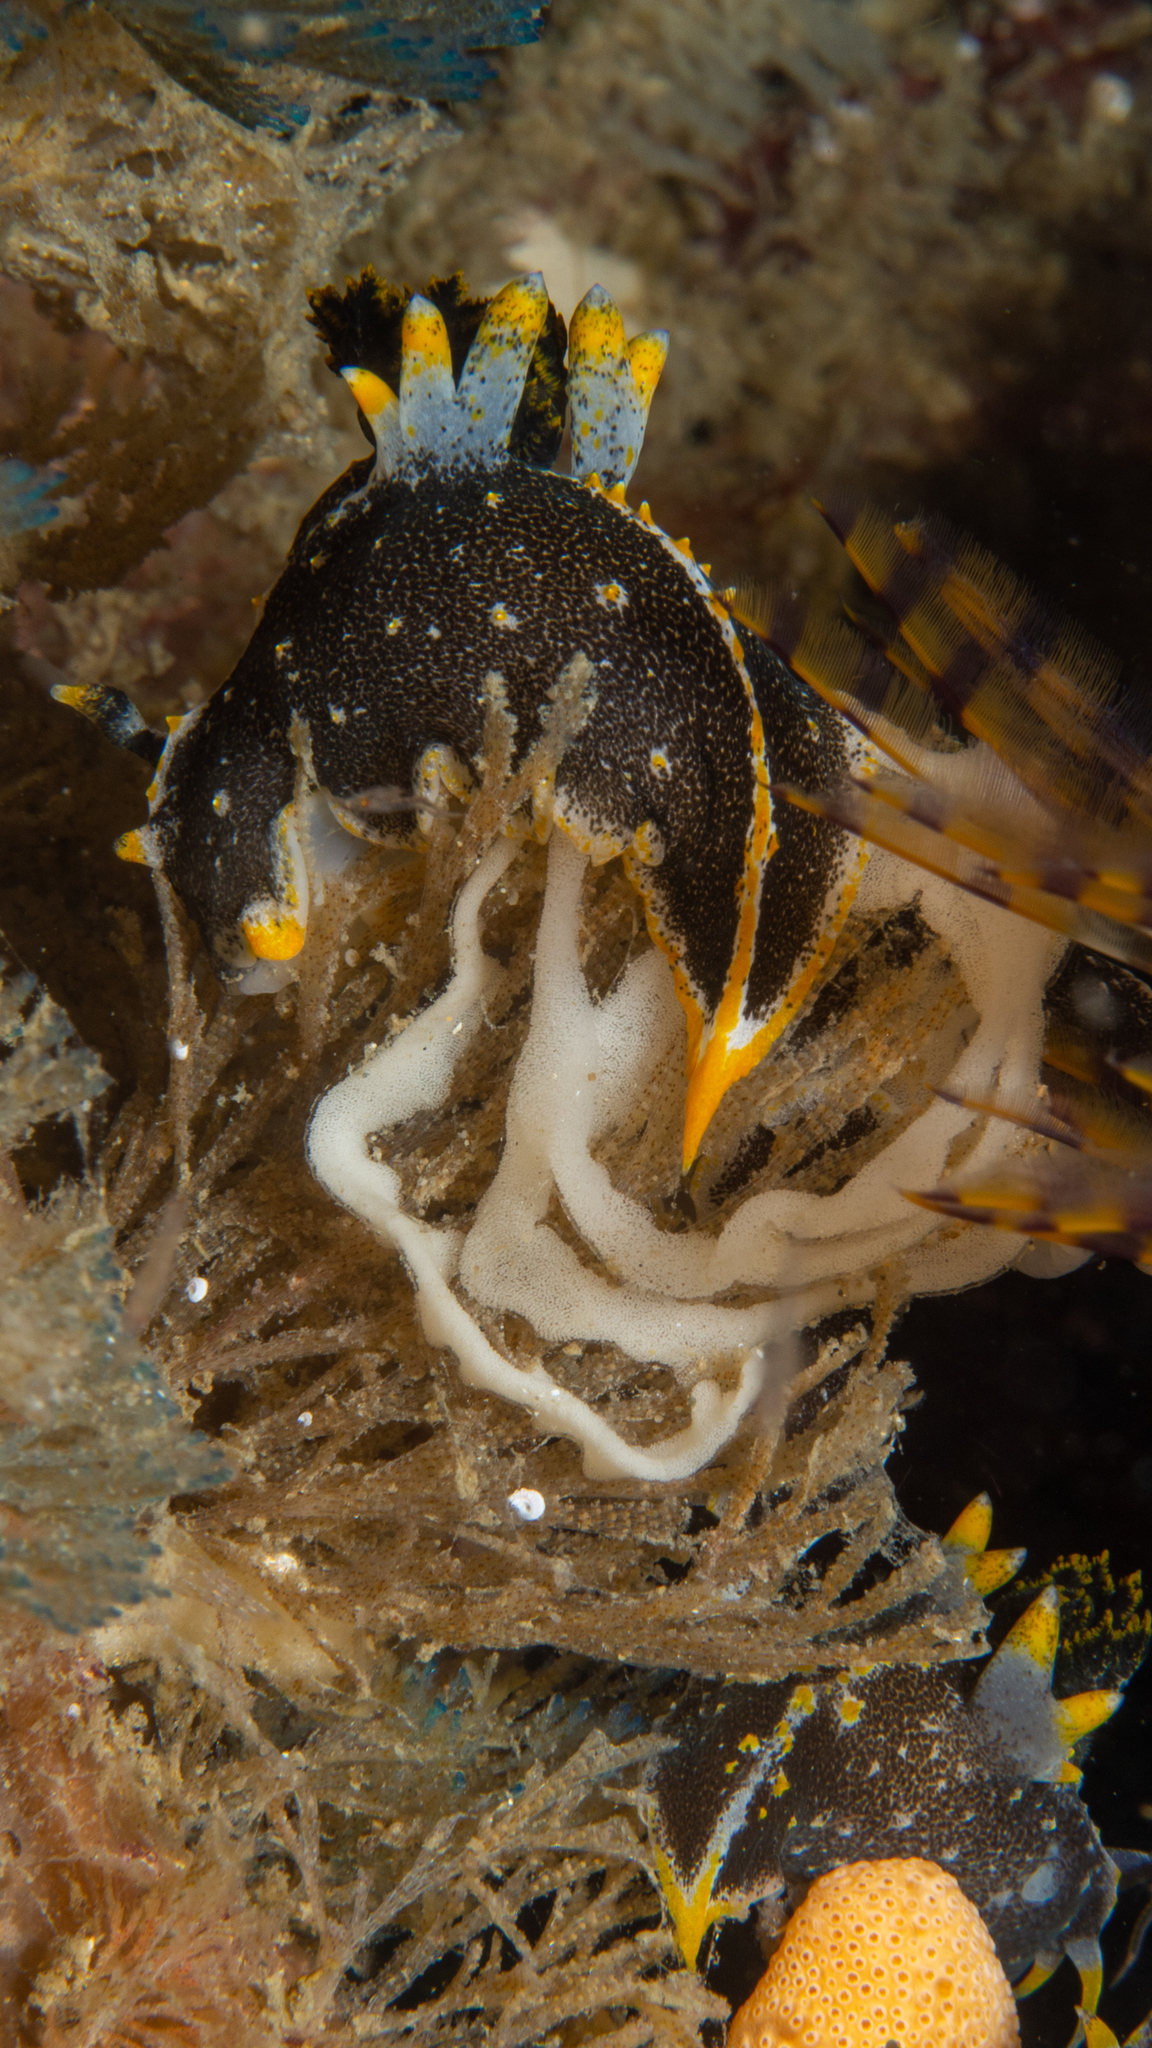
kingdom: Animalia
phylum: Mollusca
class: Gastropoda
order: Nudibranchia
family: Polyceridae
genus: Polycera
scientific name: Polycera hedgpethi
